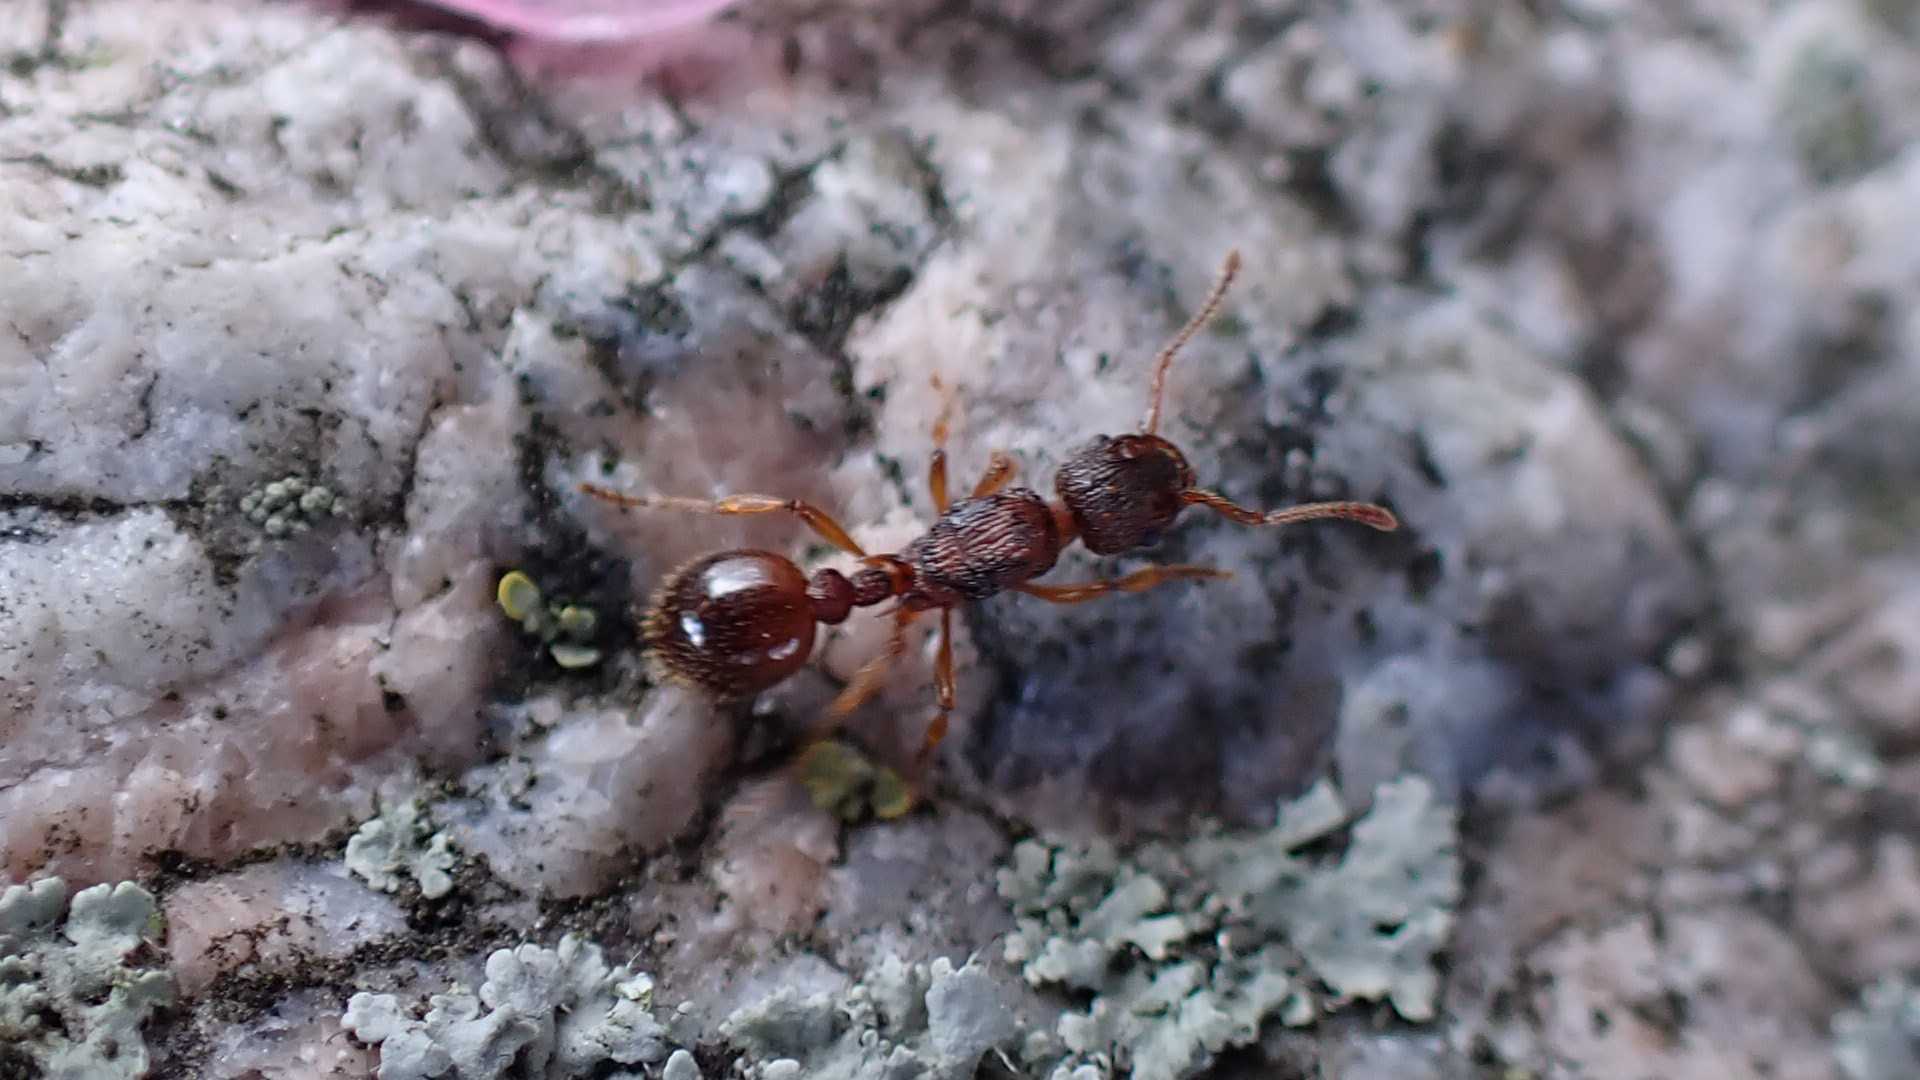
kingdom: Animalia
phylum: Arthropoda
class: Insecta
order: Hymenoptera
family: Formicidae
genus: Myrmica
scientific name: Myrmica
